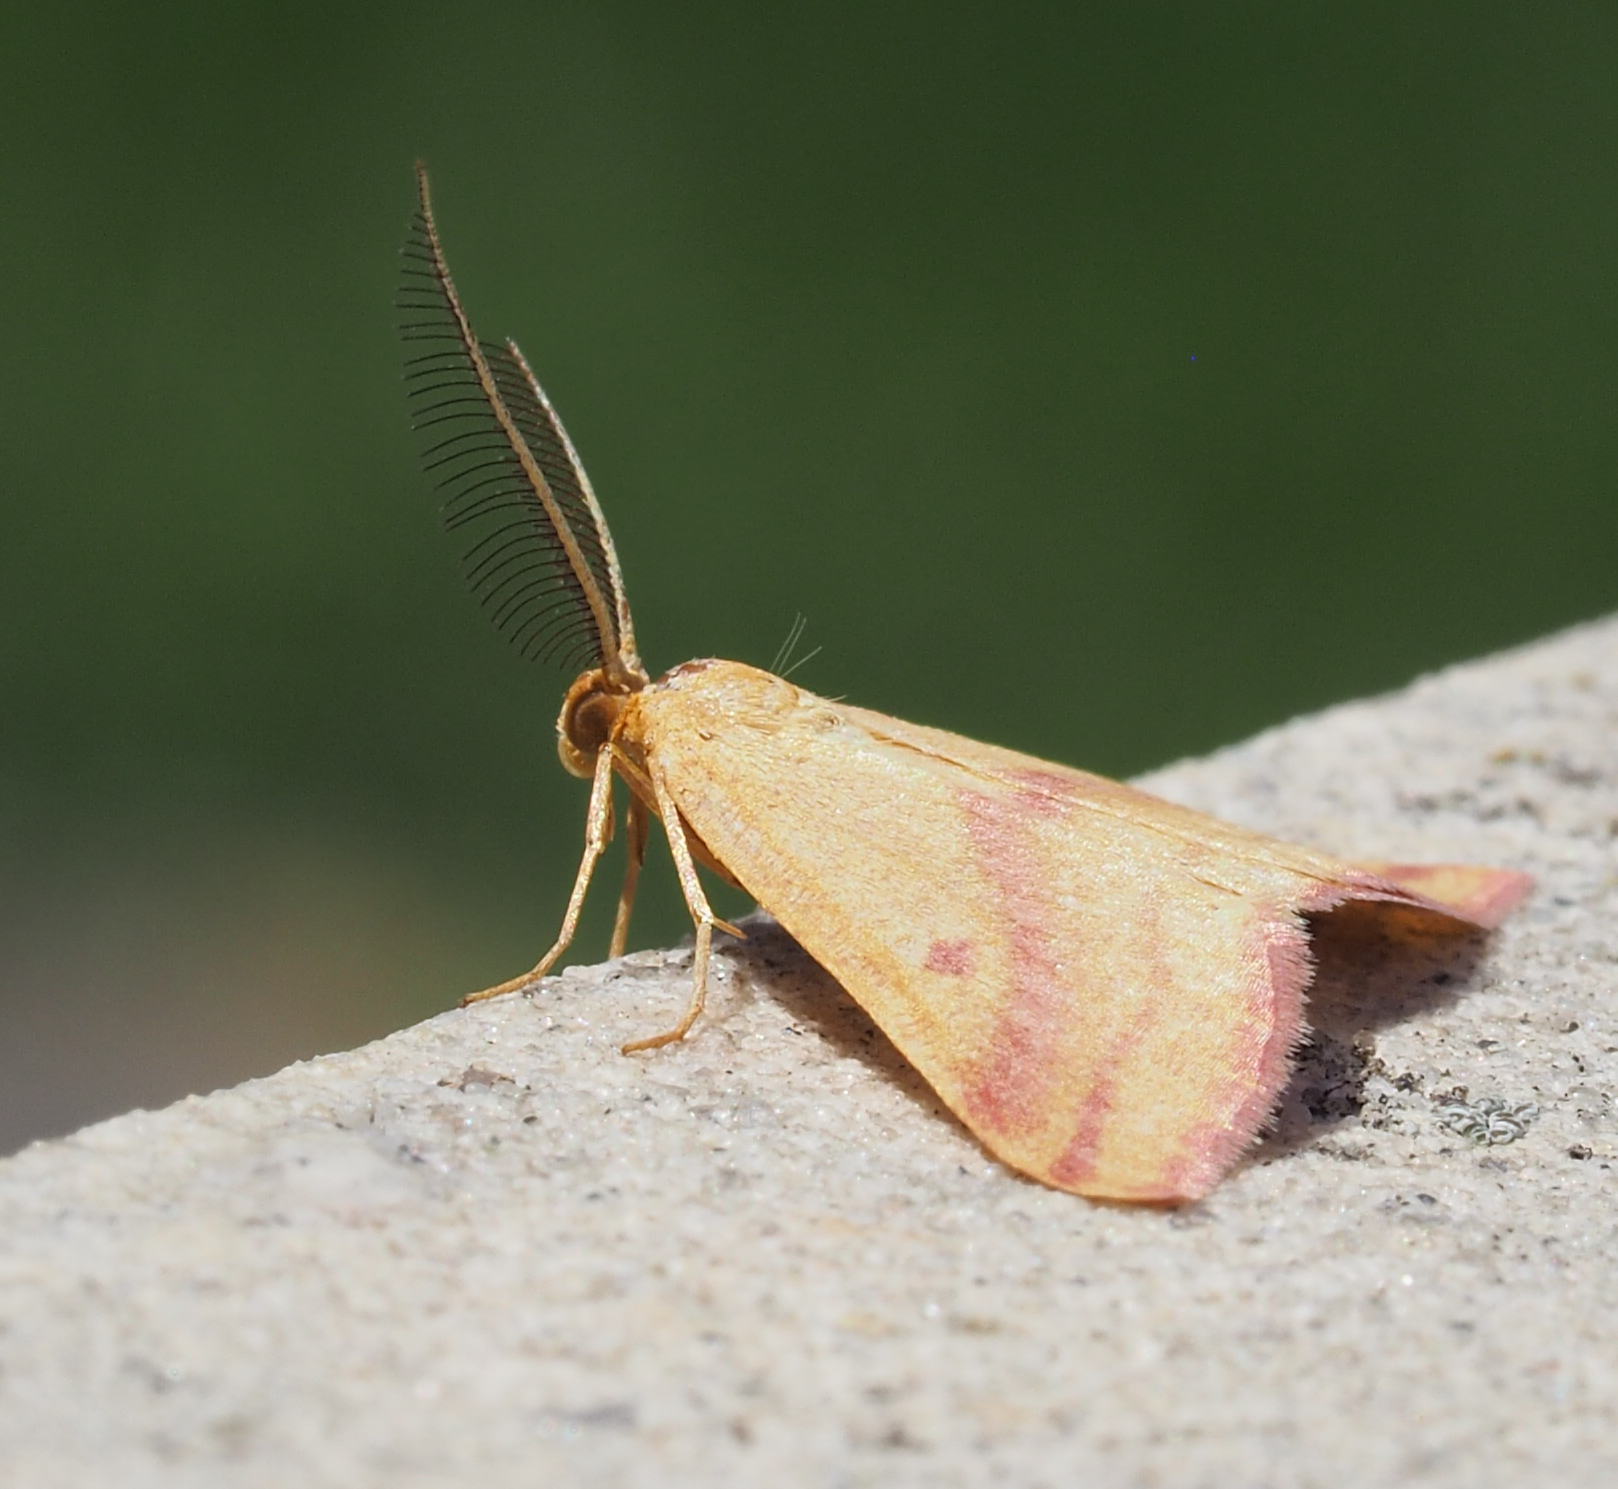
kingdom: Animalia
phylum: Arthropoda
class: Insecta
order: Lepidoptera
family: Geometridae
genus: Haematopis
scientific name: Haematopis grataria
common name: Chickweed geometer
